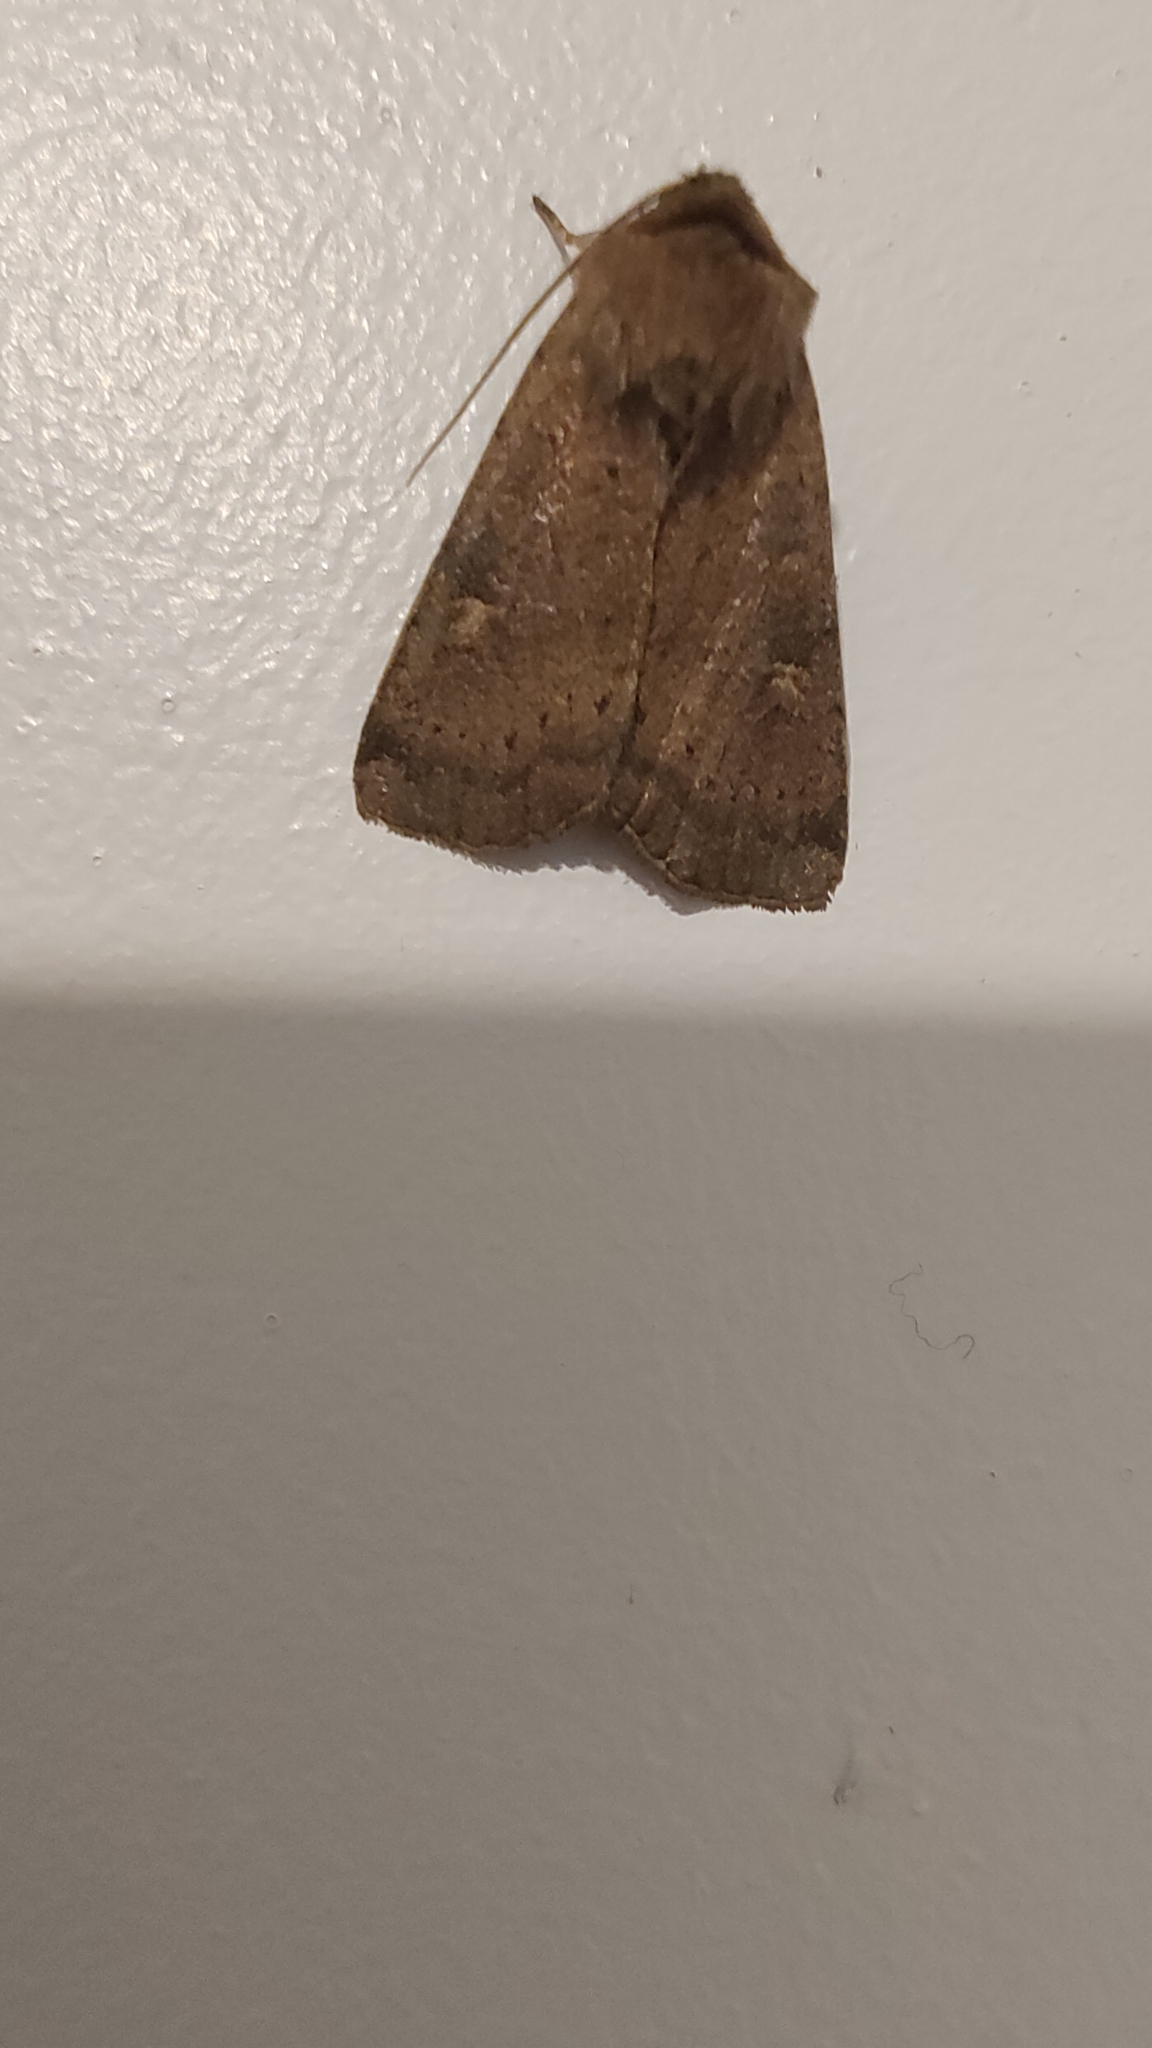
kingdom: Animalia
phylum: Arthropoda
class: Insecta
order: Lepidoptera
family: Noctuidae
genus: Xestia
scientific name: Xestia xanthographa
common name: Square-spot rustic
